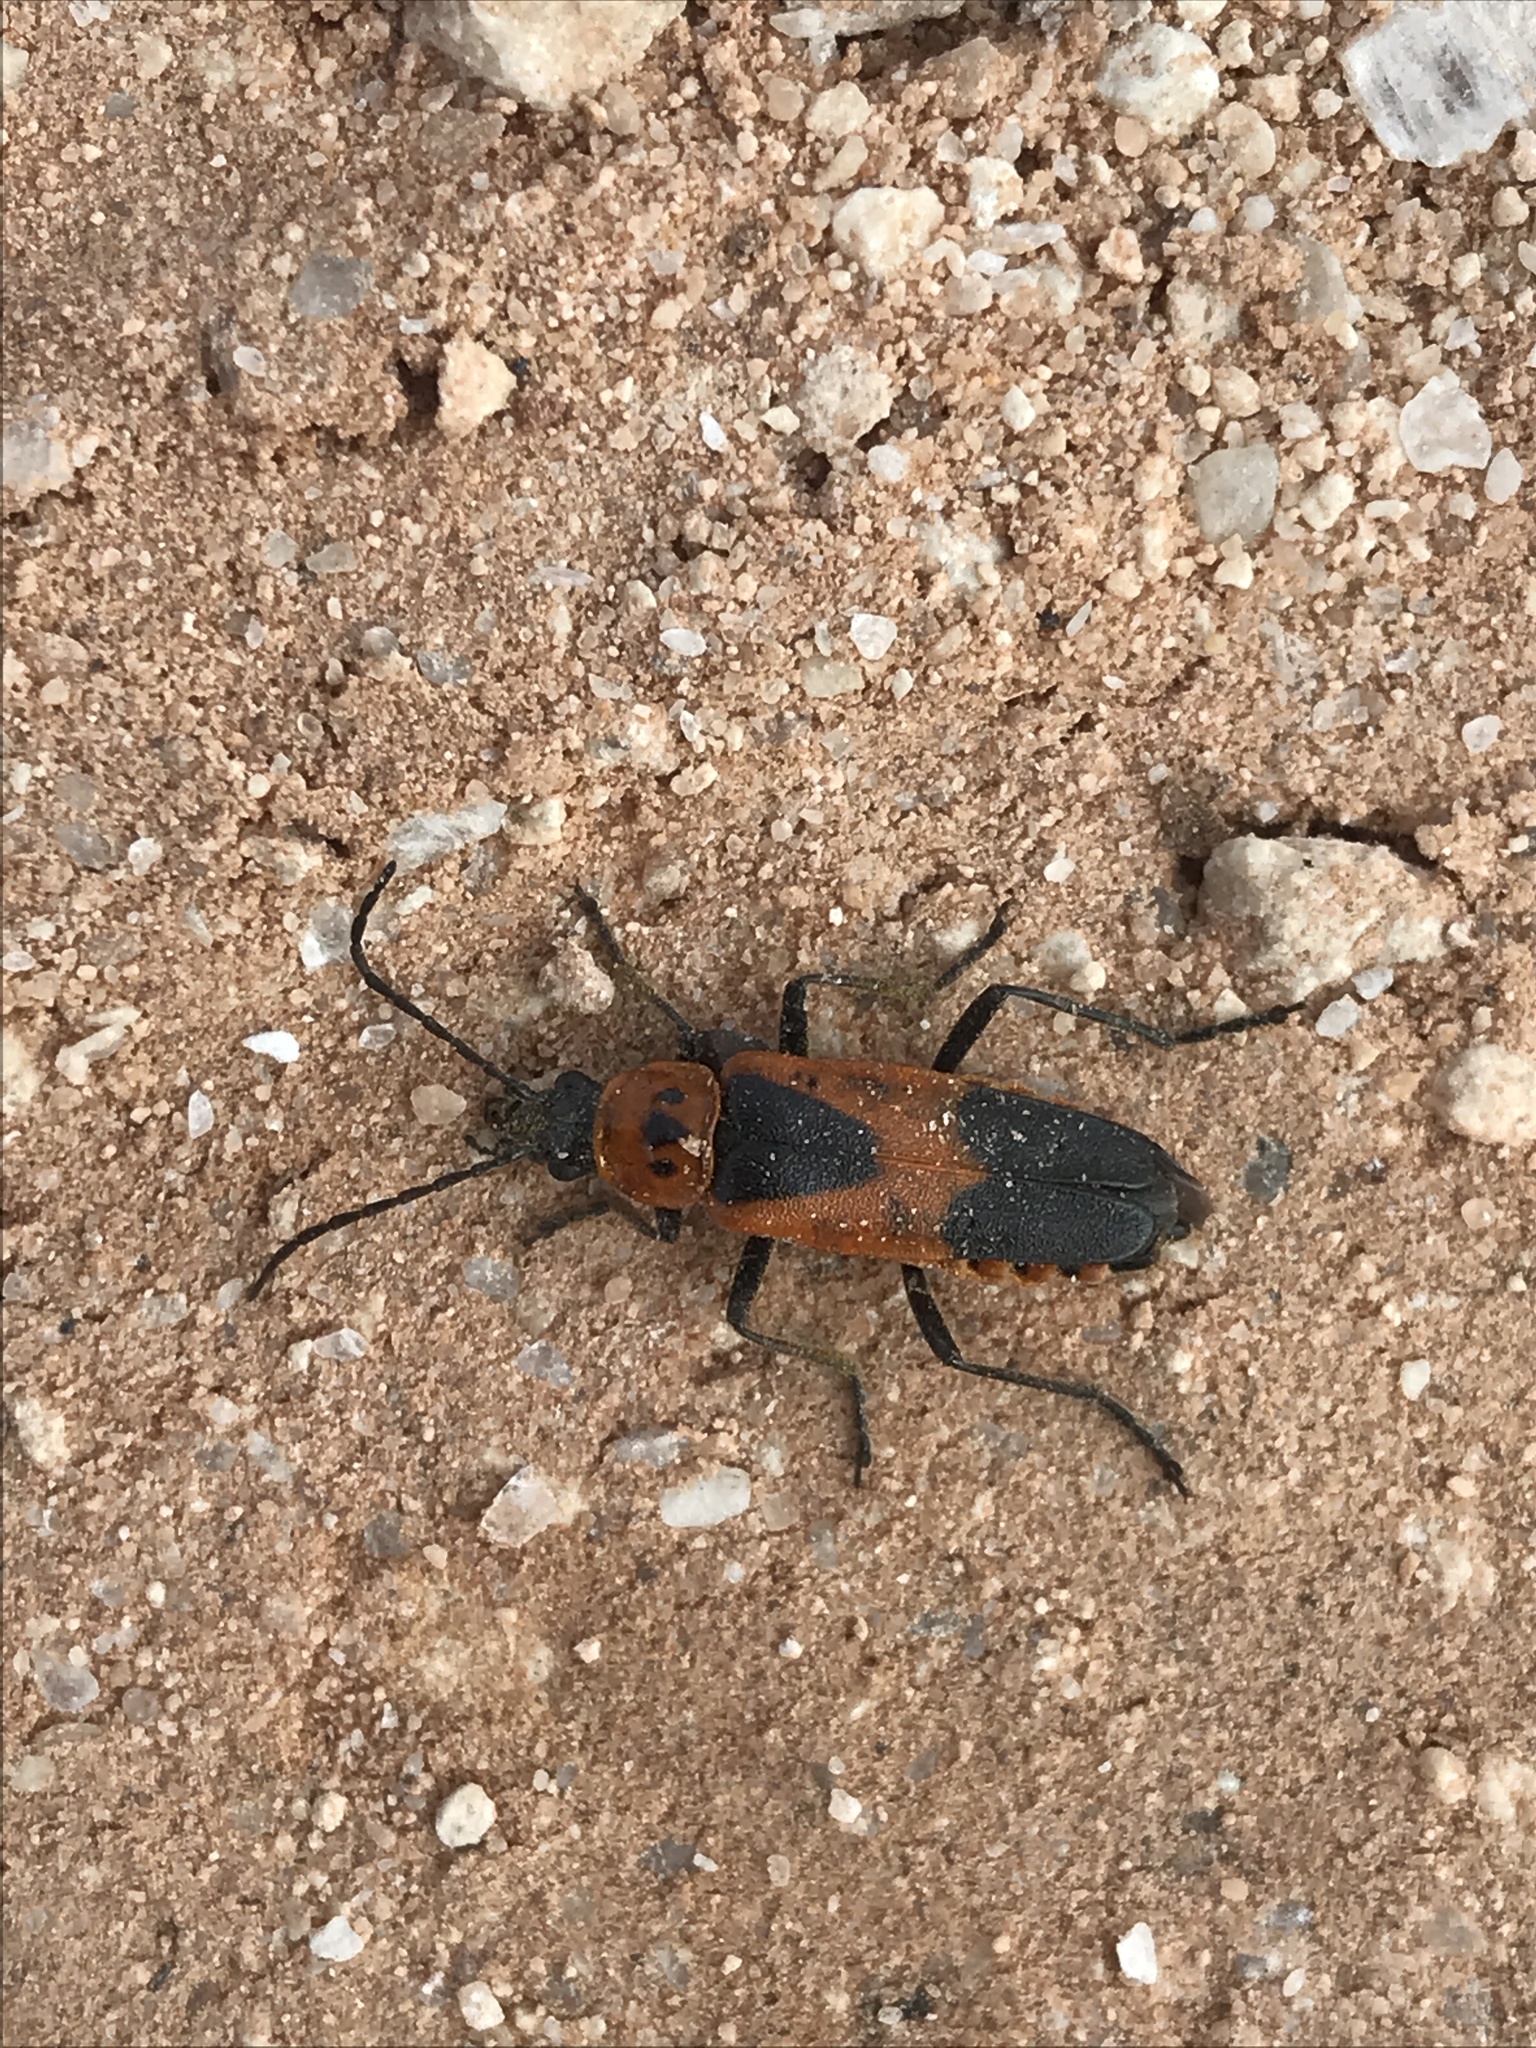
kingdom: Animalia
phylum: Arthropoda
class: Insecta
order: Coleoptera
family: Cantharidae
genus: Chauliognathus
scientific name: Chauliognathus basalis
